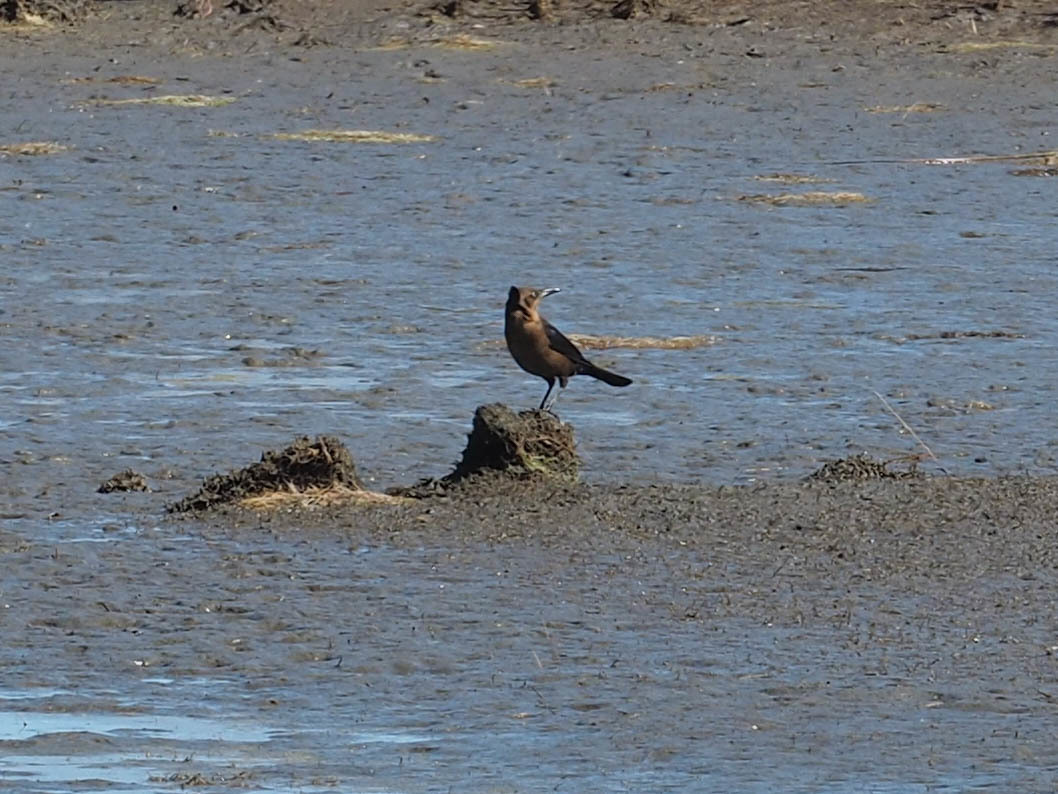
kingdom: Animalia
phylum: Chordata
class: Aves
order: Passeriformes
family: Icteridae
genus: Quiscalus
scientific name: Quiscalus major
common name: Boat-tailed grackle
